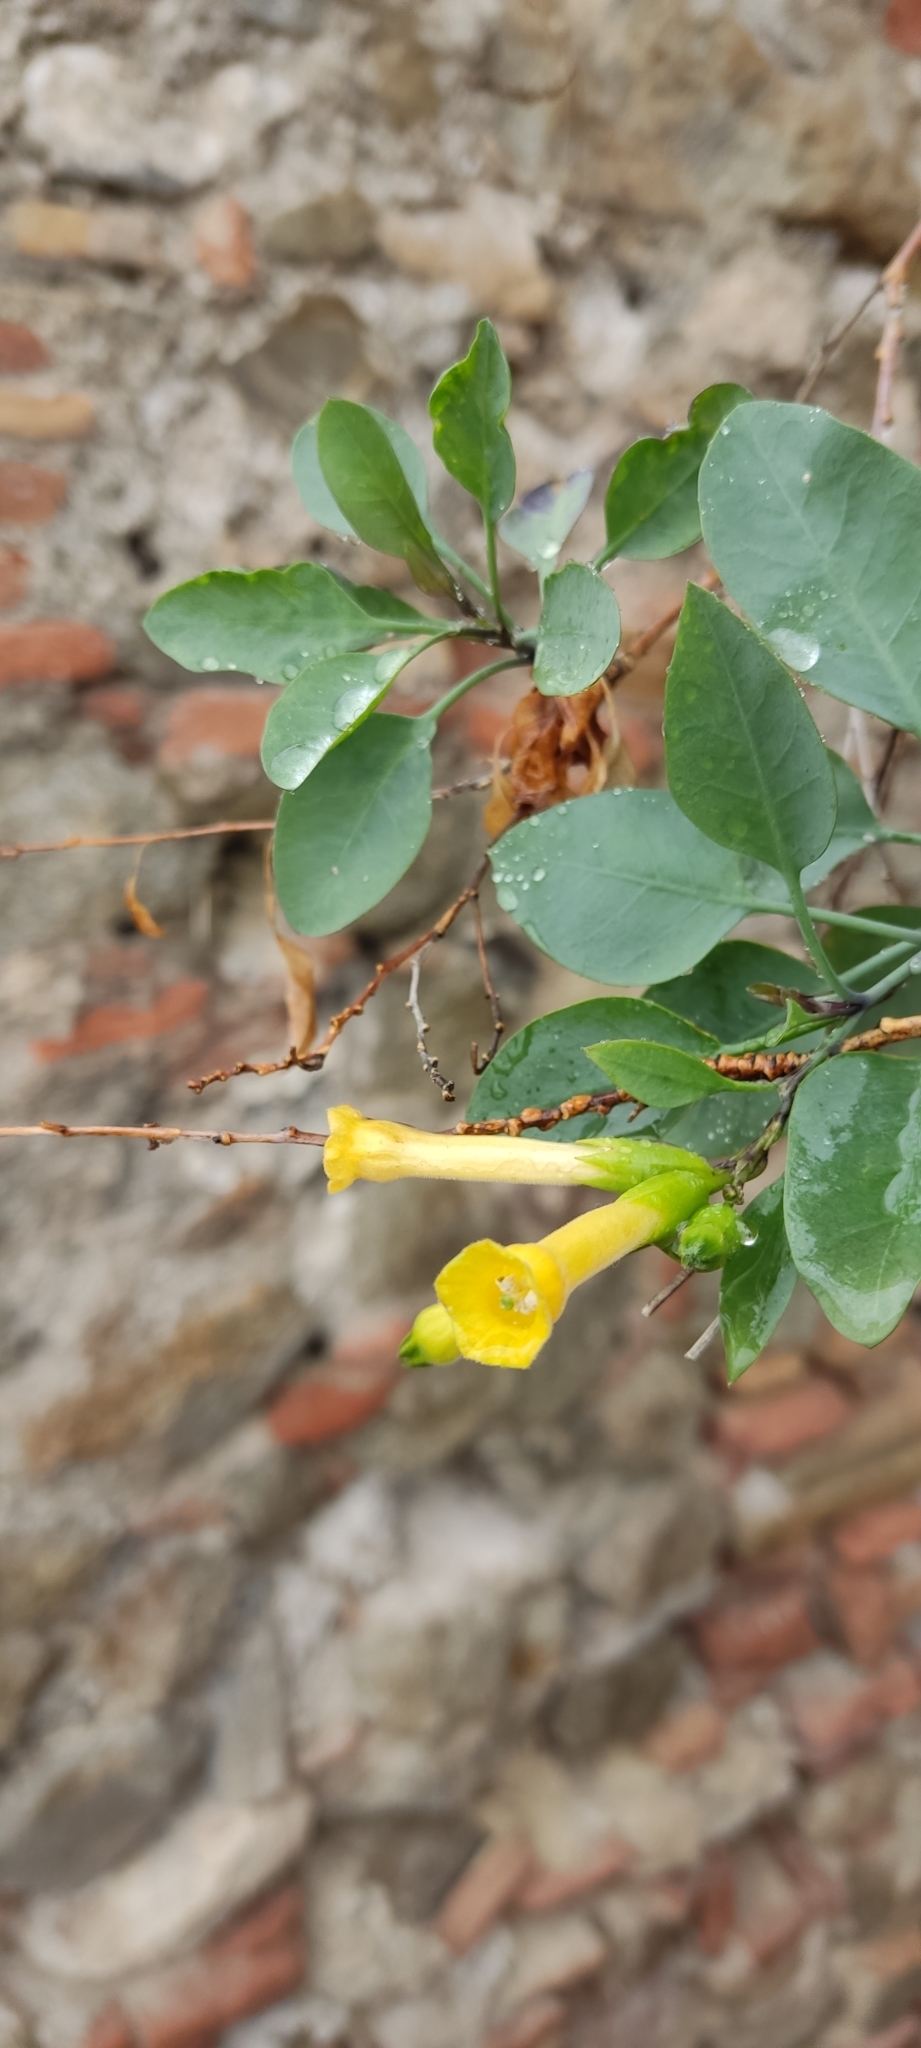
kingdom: Plantae
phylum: Tracheophyta
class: Magnoliopsida
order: Solanales
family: Solanaceae
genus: Nicotiana
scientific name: Nicotiana glauca
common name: Tree tobacco
